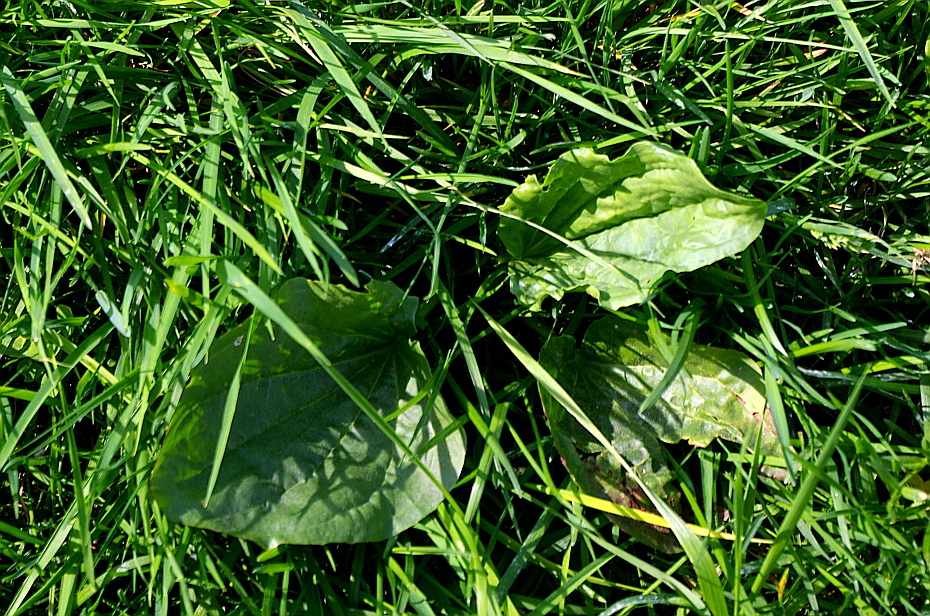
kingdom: Plantae
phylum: Tracheophyta
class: Magnoliopsida
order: Lamiales
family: Plantaginaceae
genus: Plantago
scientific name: Plantago major
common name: Common plantain
